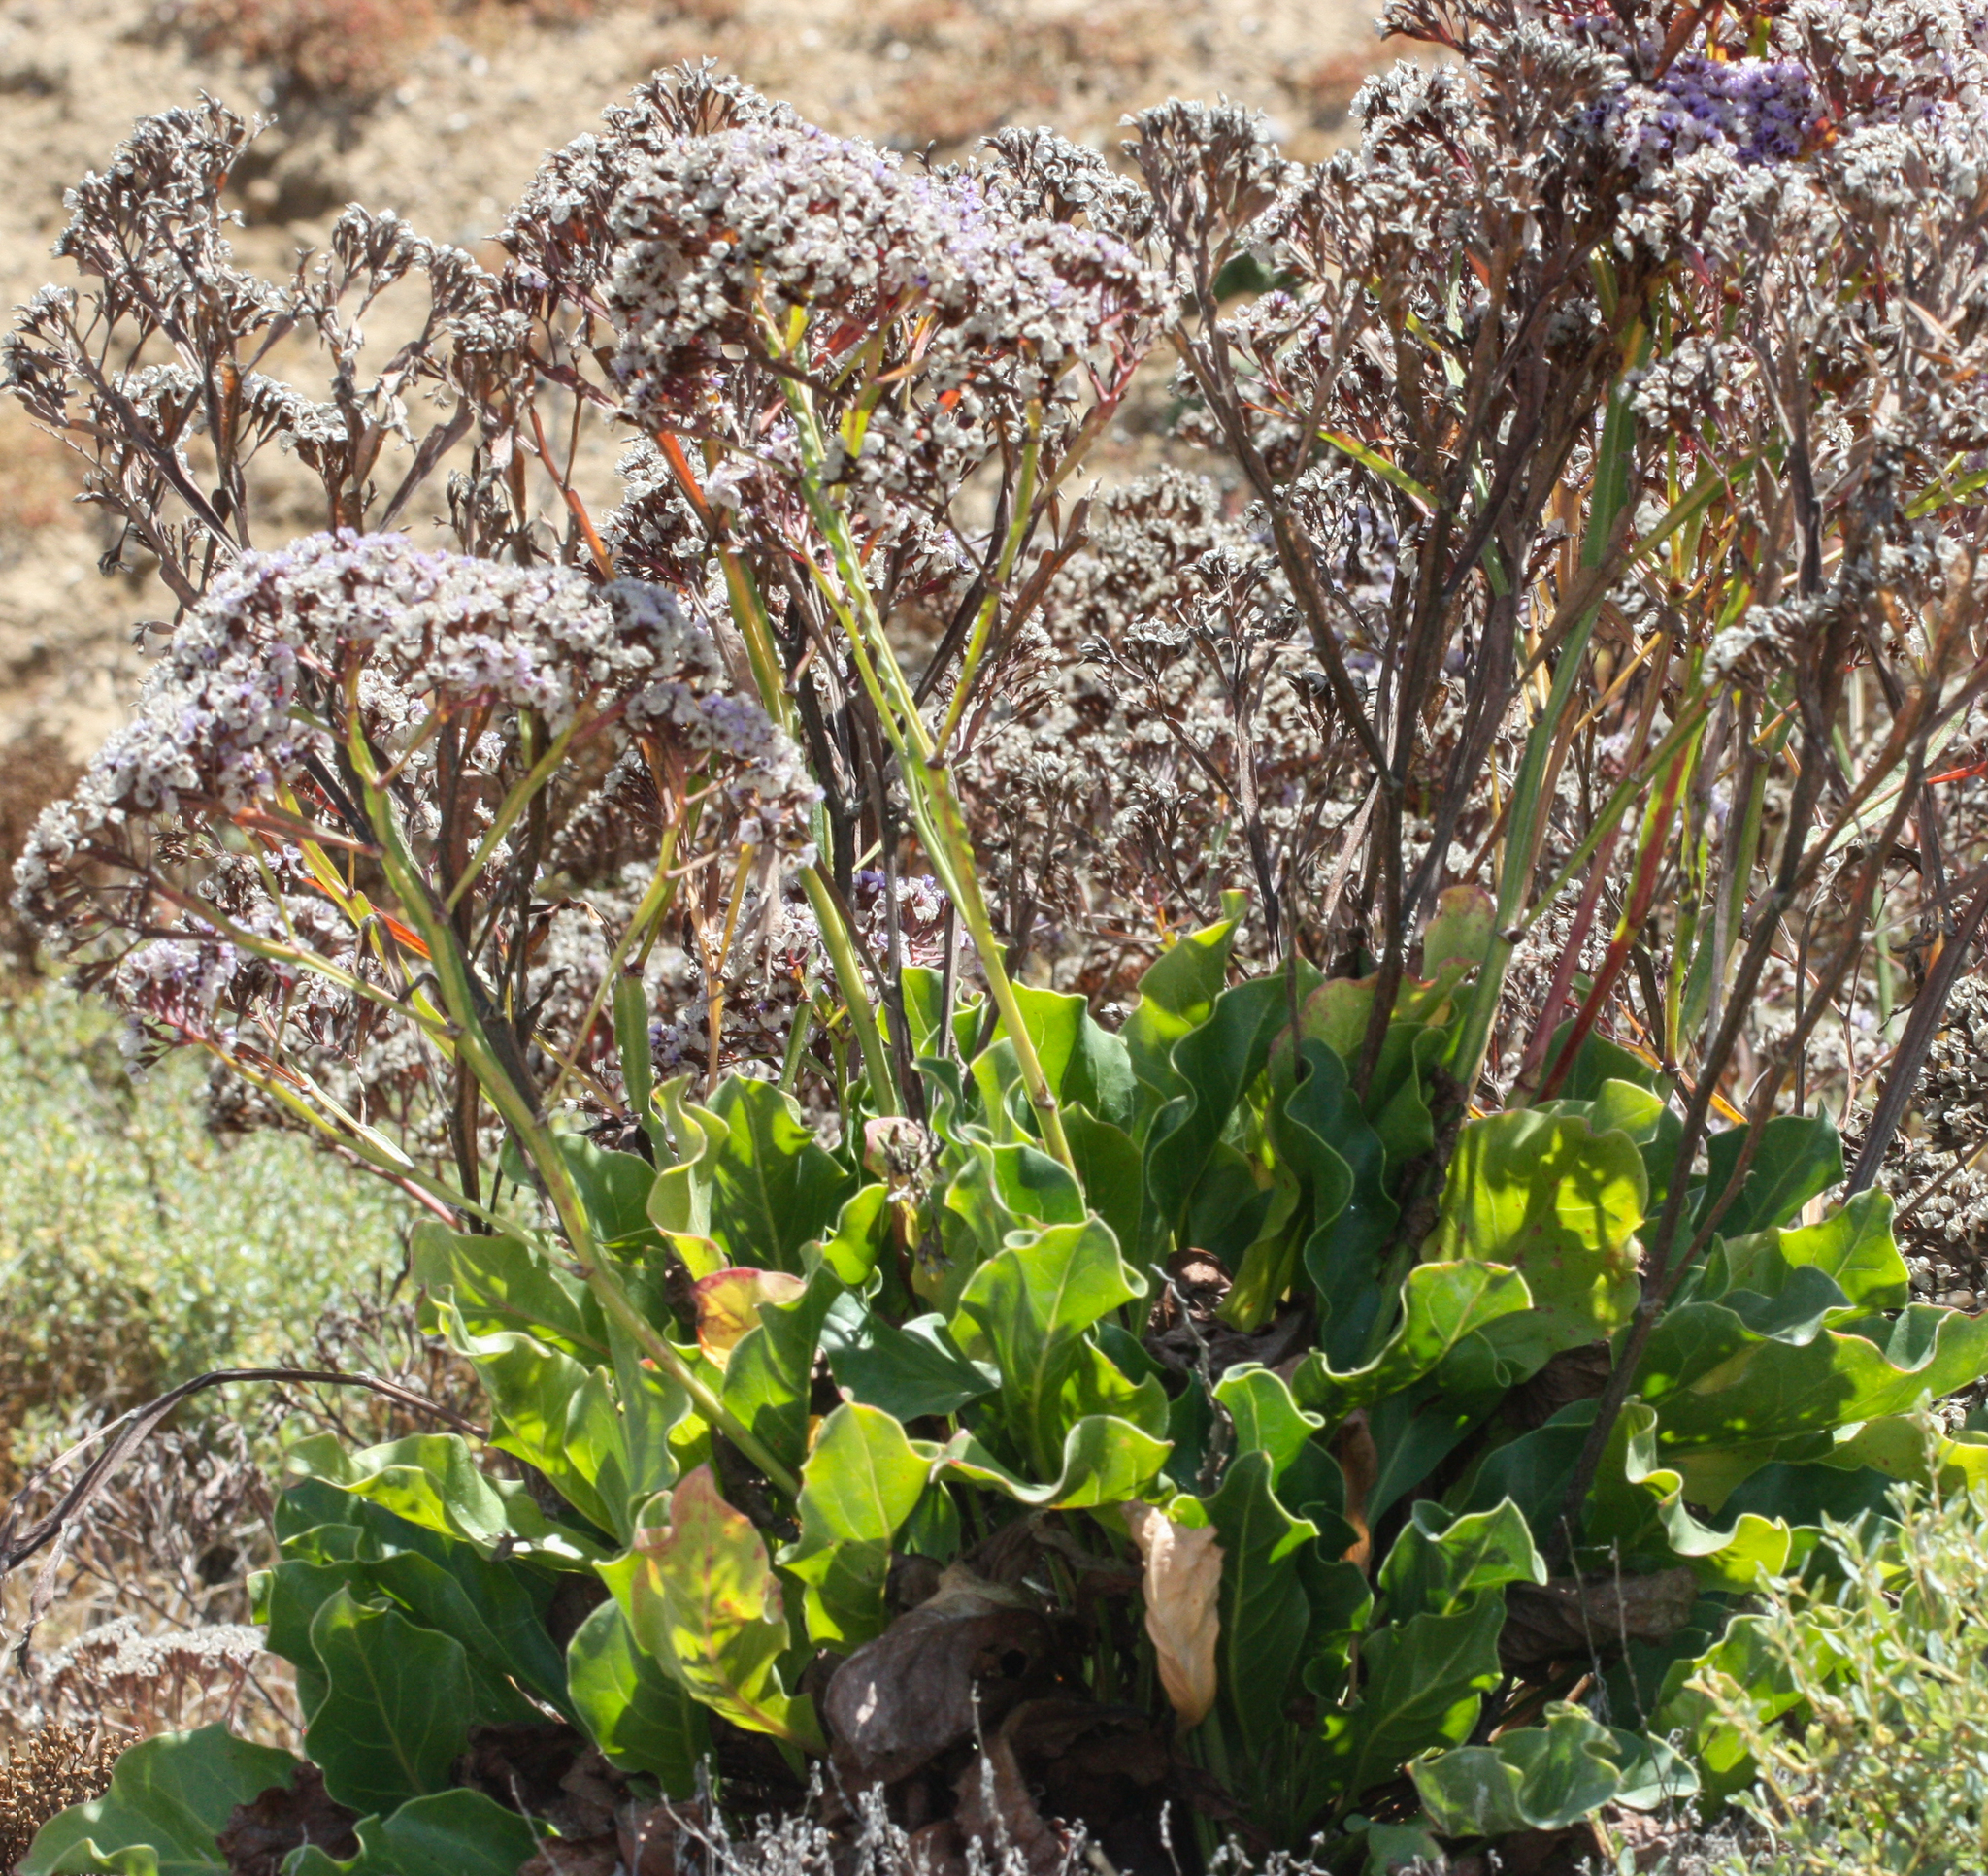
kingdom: Plantae
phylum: Tracheophyta
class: Magnoliopsida
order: Caryophyllales
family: Plumbaginaceae
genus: Limonium
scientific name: Limonium perezii
